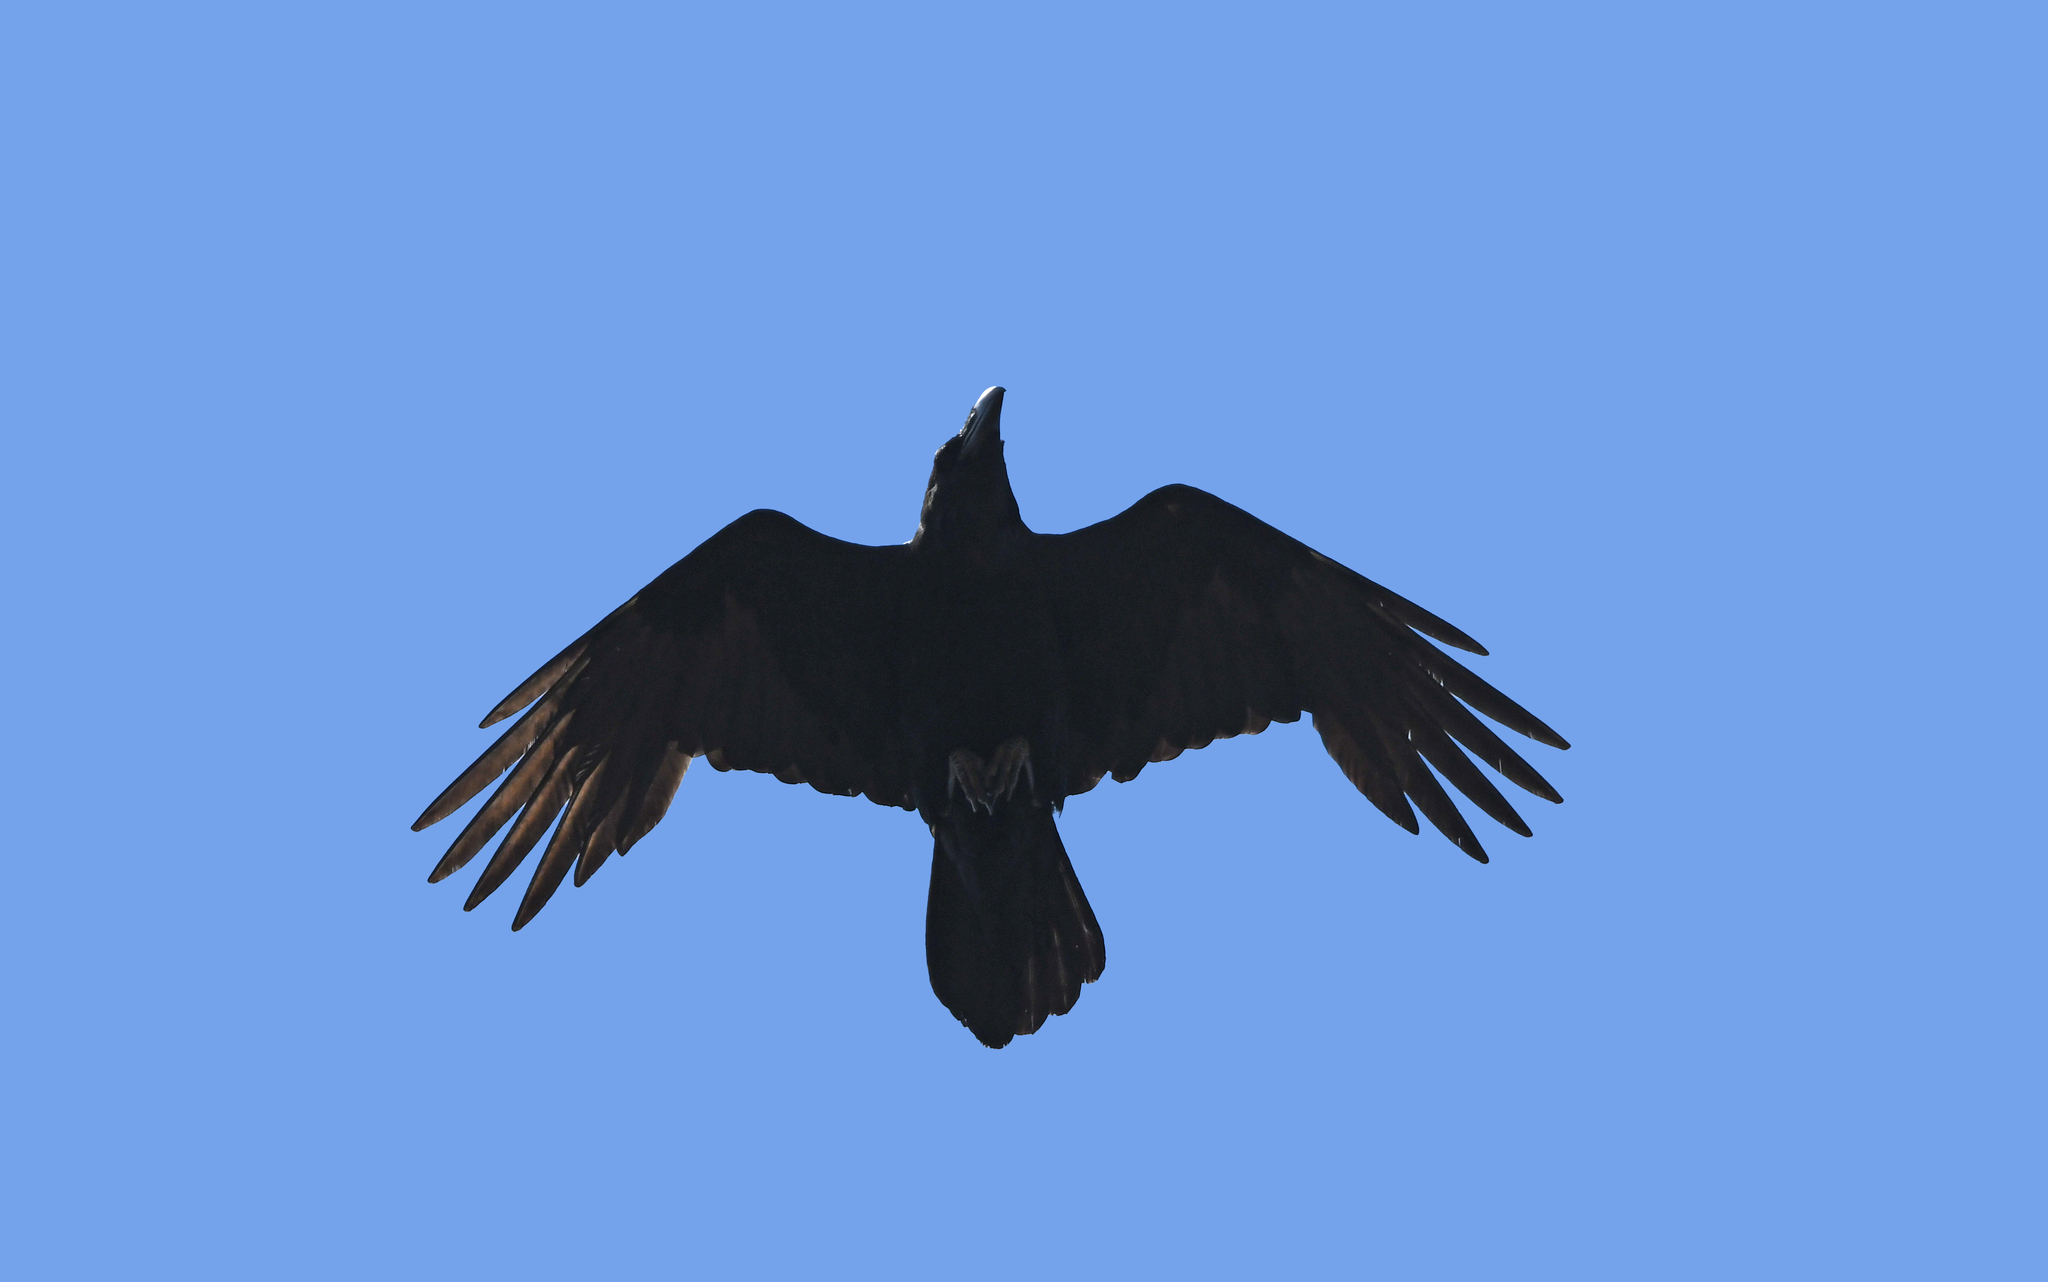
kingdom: Animalia
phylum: Chordata
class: Aves
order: Passeriformes
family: Corvidae
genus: Corvus
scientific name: Corvus corax
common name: Common raven
